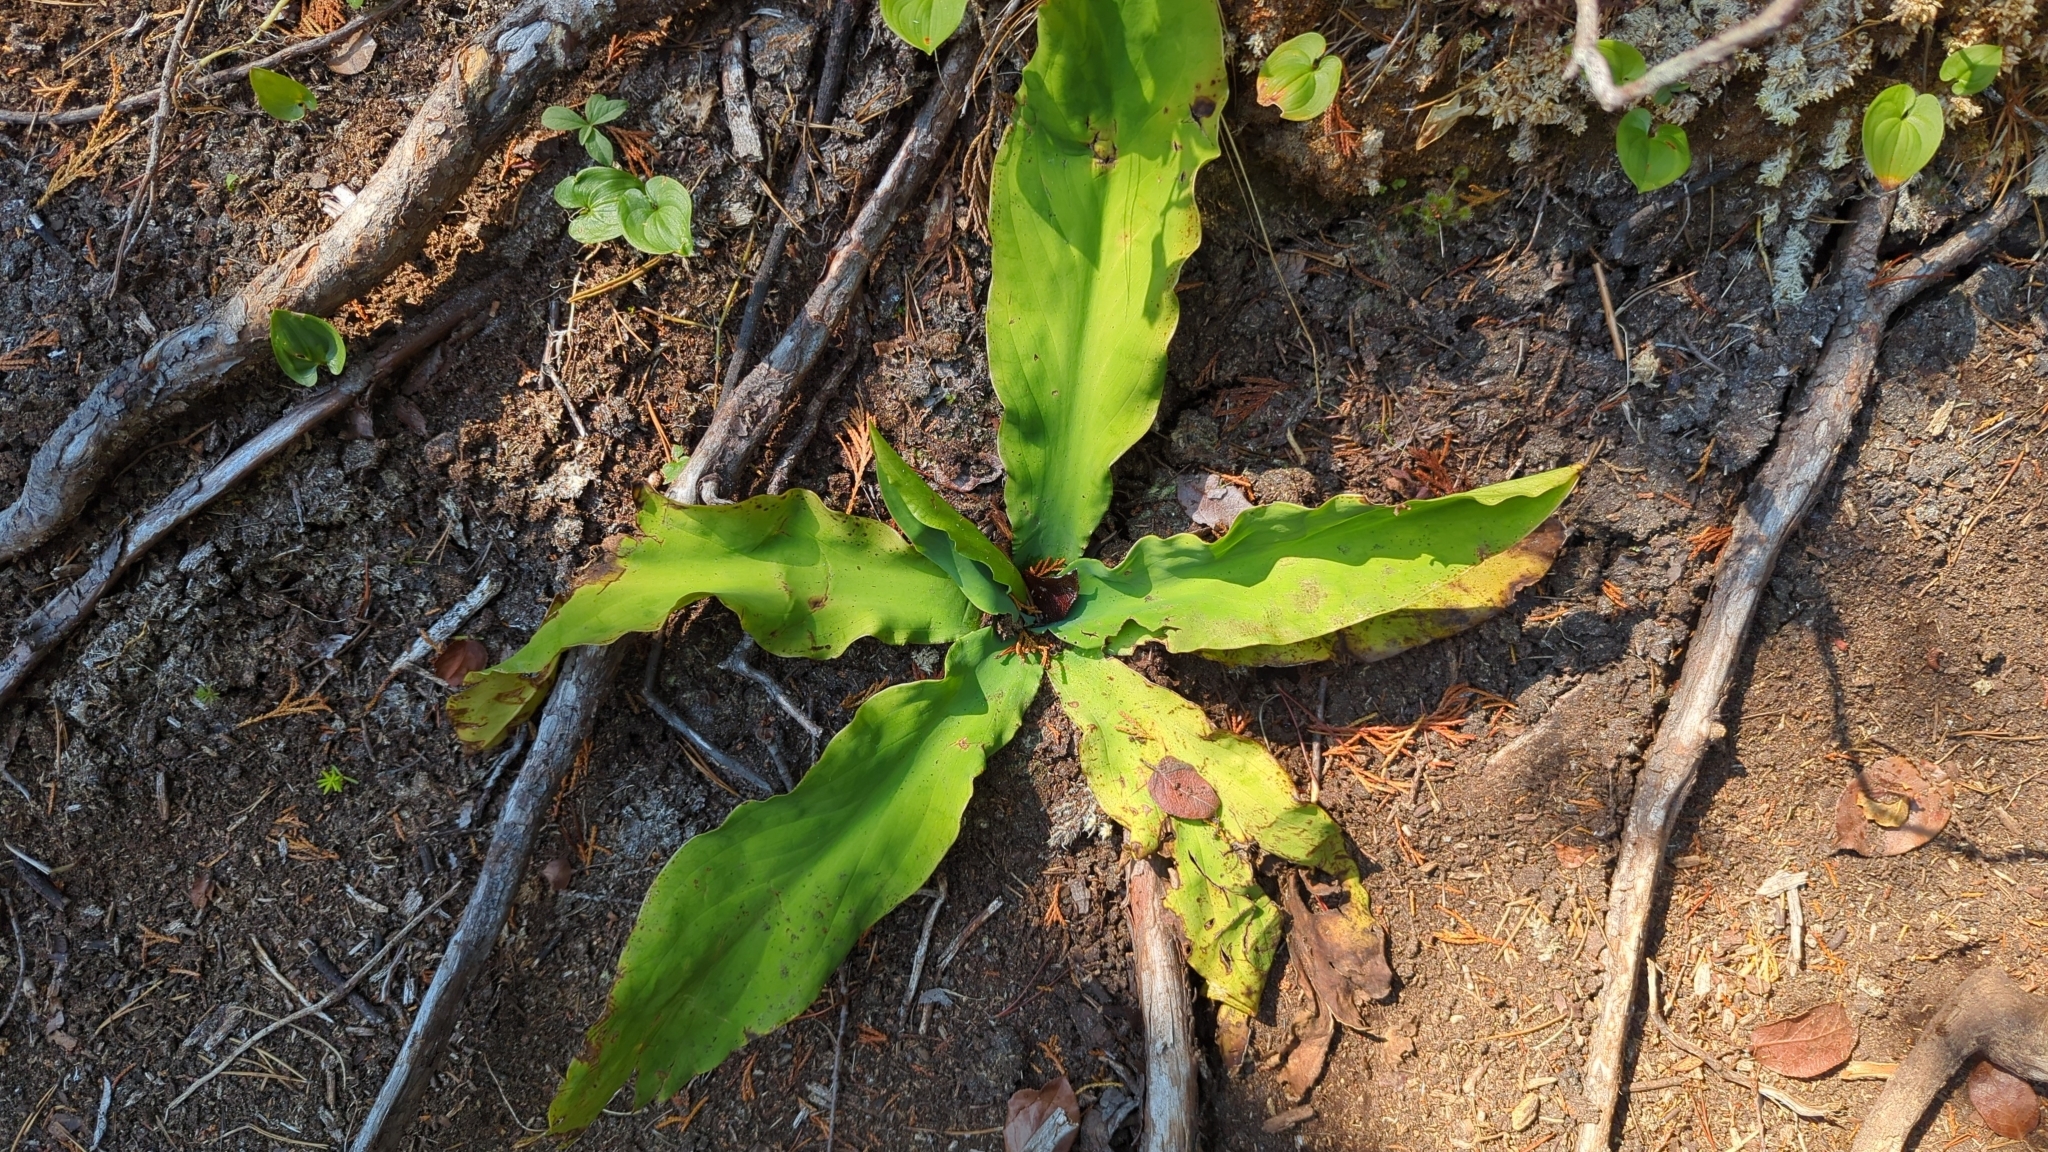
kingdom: Plantae
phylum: Tracheophyta
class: Liliopsida
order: Alismatales
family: Araceae
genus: Lysichiton
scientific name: Lysichiton americanus
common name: American skunk cabbage
